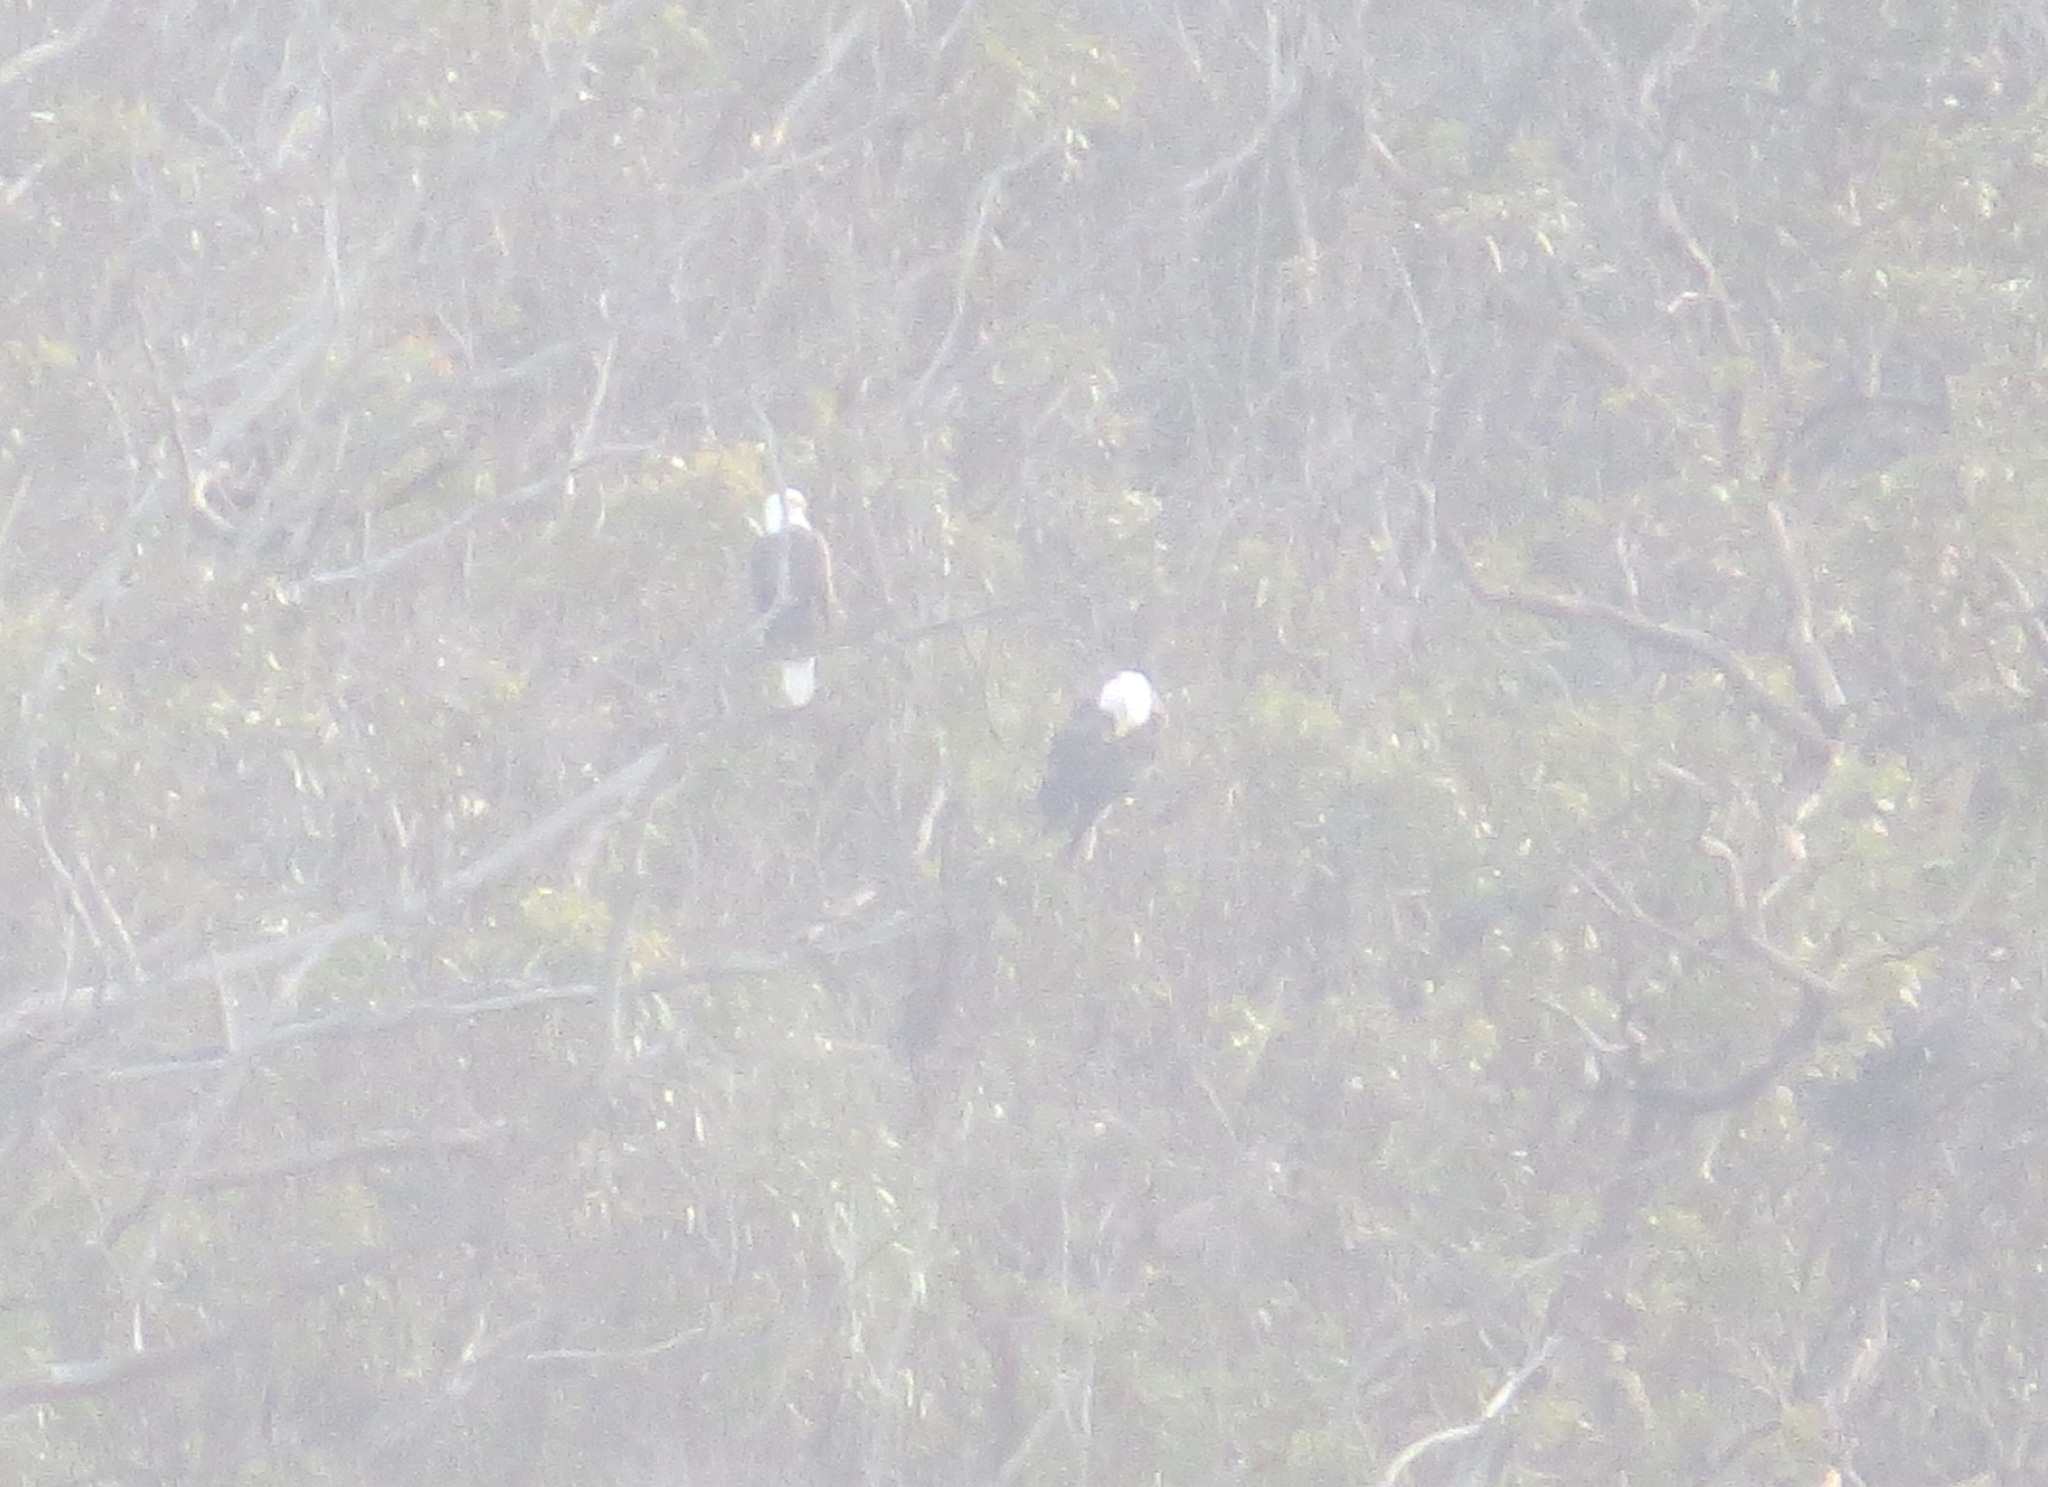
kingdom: Animalia
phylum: Chordata
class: Aves
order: Accipitriformes
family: Accipitridae
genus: Haliaeetus
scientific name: Haliaeetus leucocephalus
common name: Bald eagle
